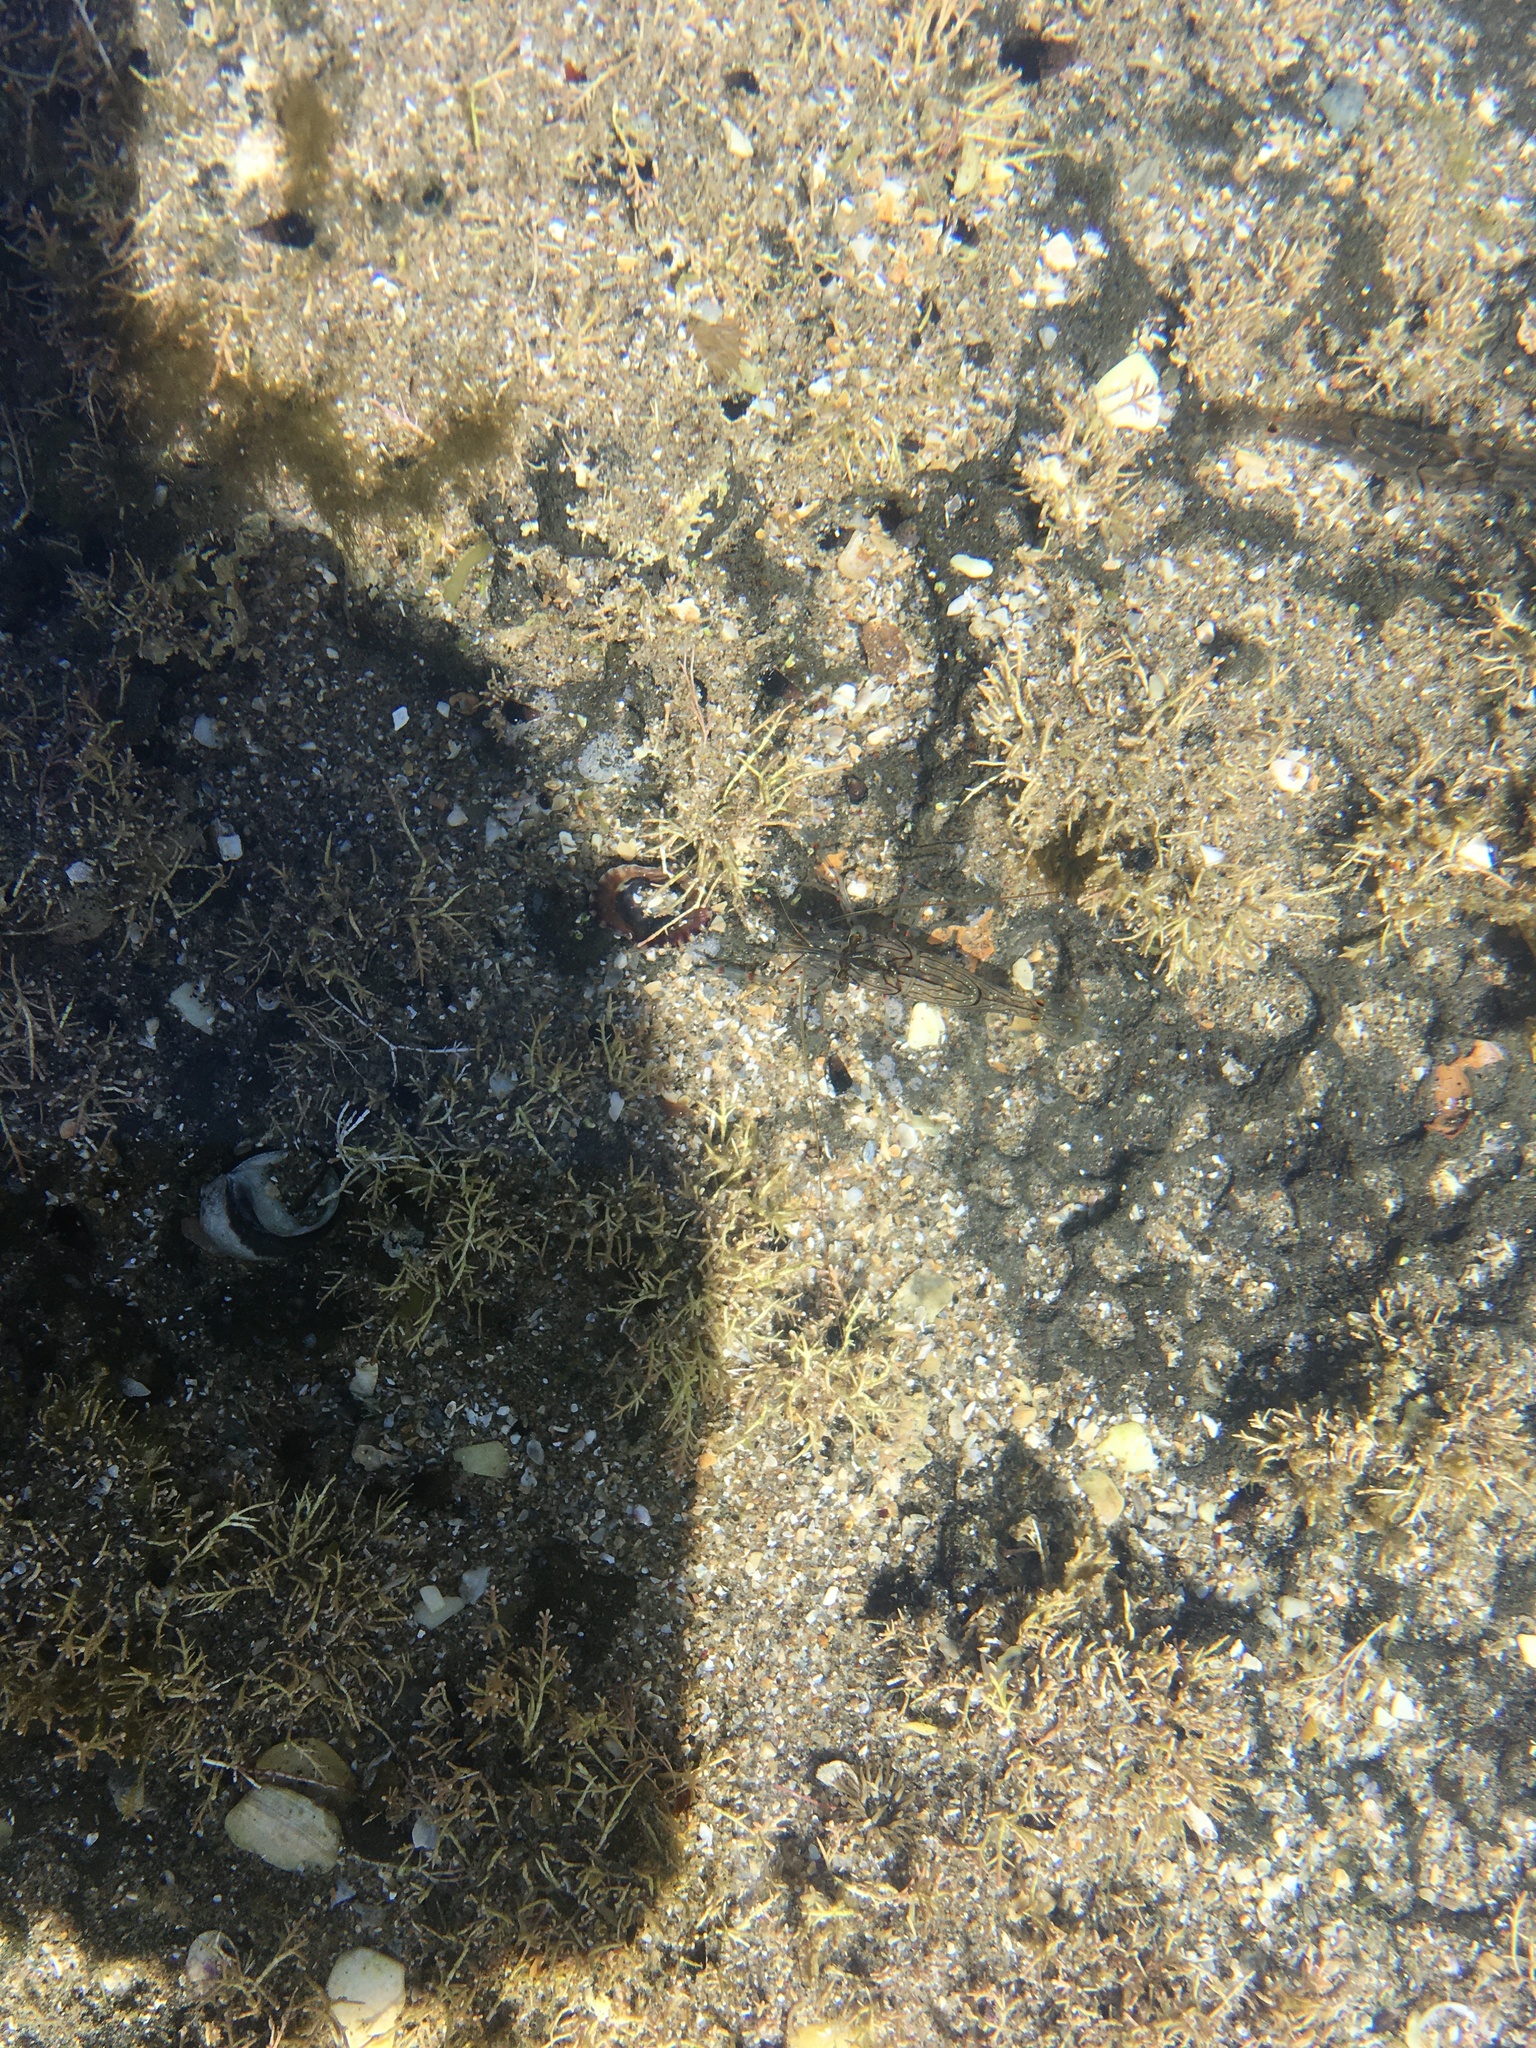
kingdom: Animalia
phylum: Arthropoda
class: Malacostraca
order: Decapoda
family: Palaemonidae
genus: Palaemon
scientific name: Palaemon affinis
